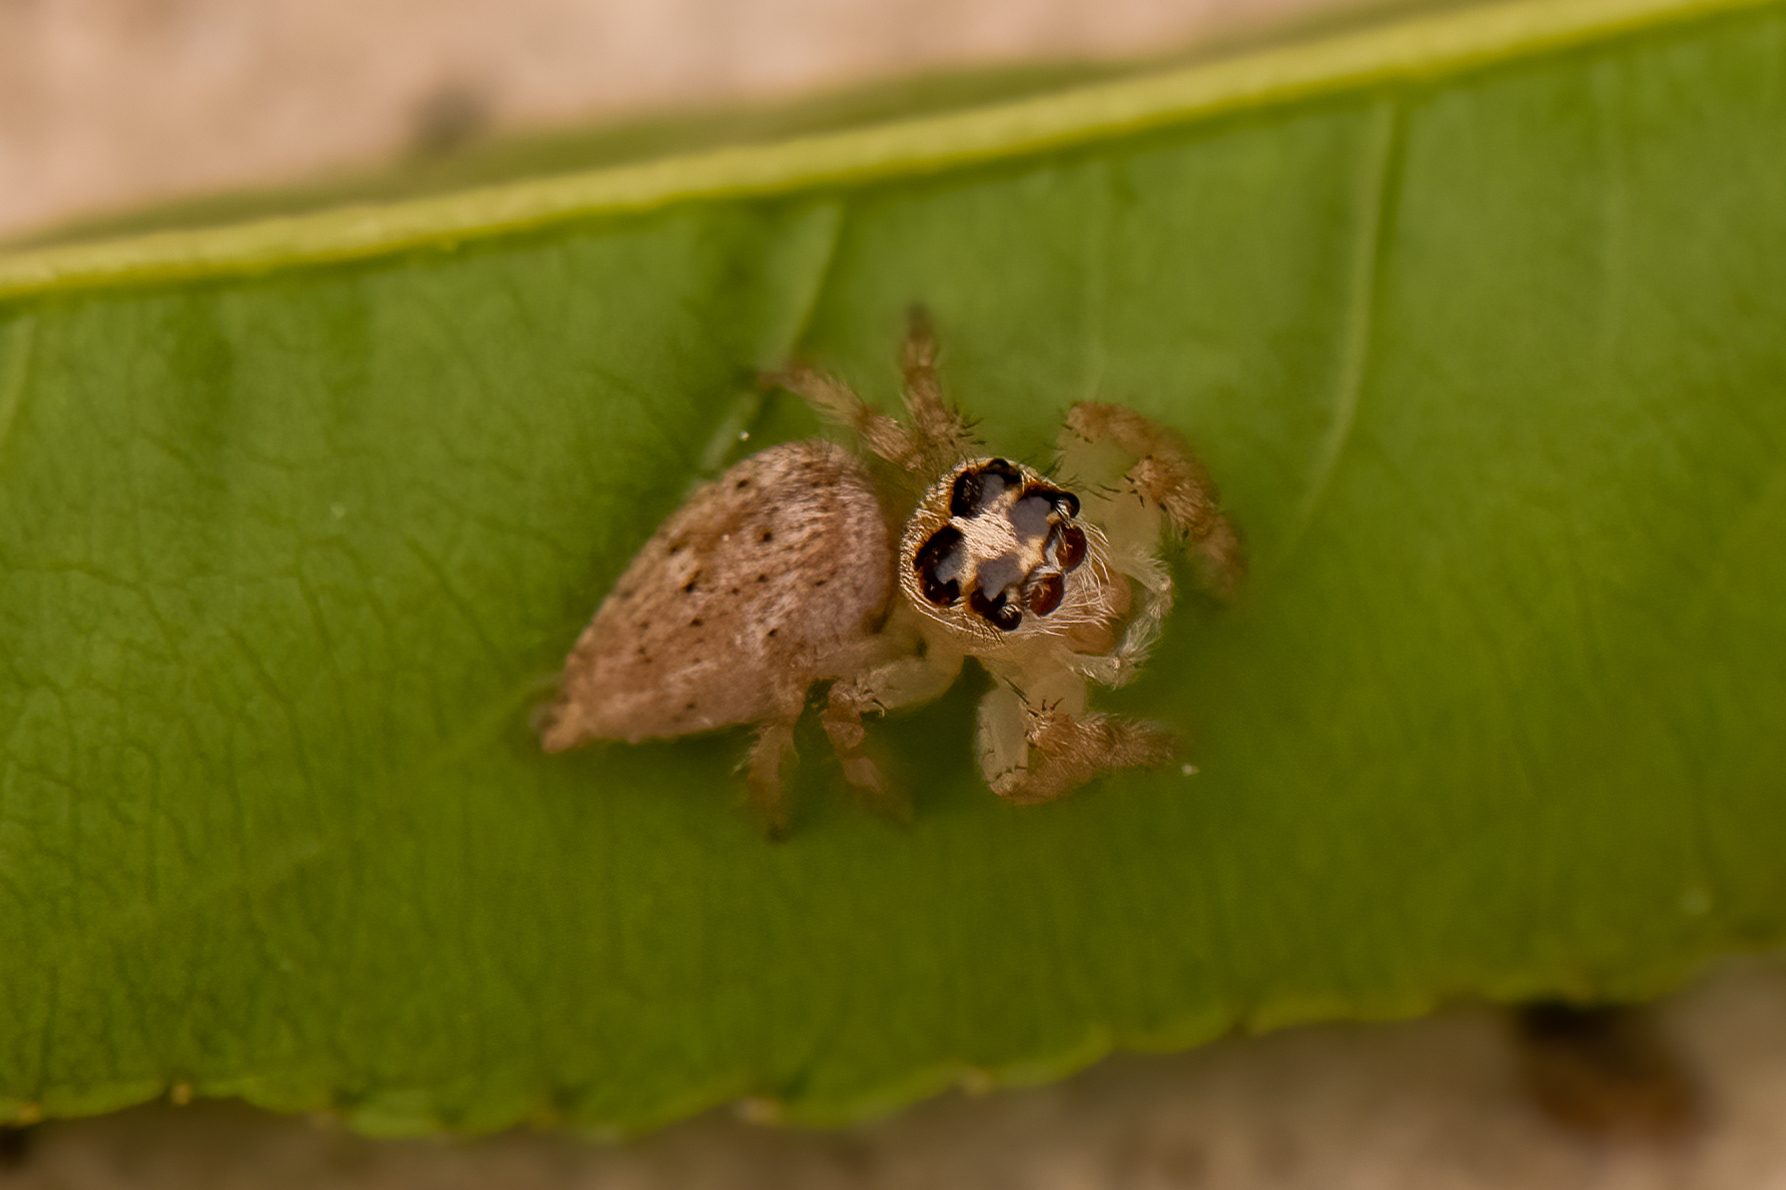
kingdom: Animalia
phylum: Arthropoda
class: Arachnida
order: Araneae
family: Salticidae
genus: Colonus
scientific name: Colonus hesperus
